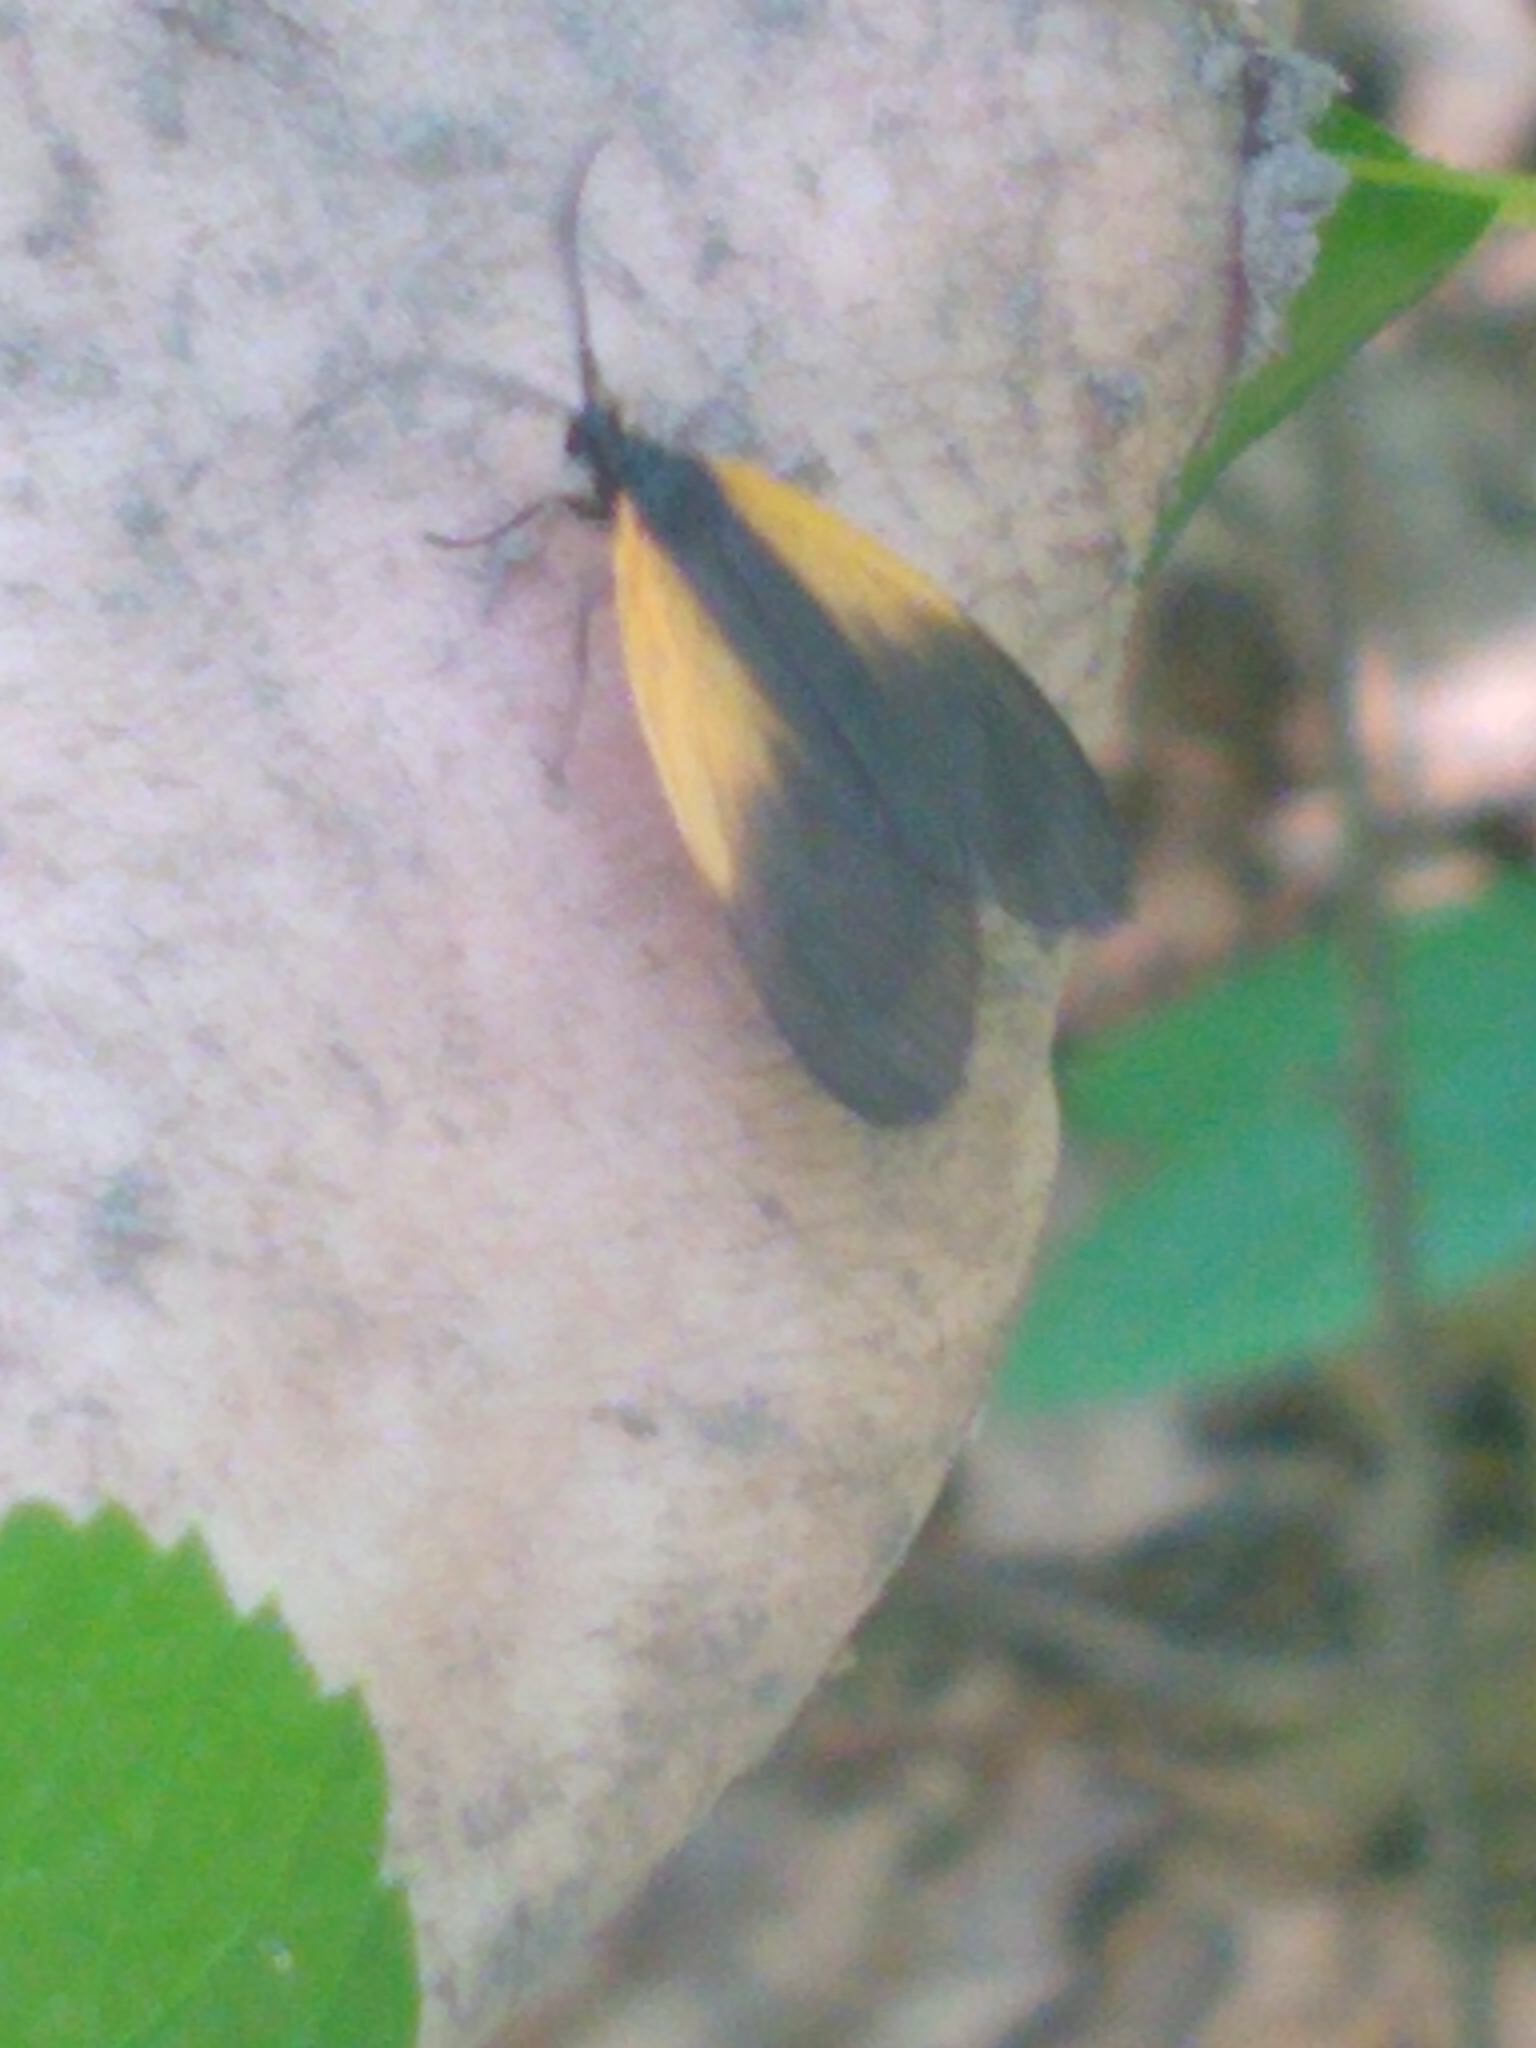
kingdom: Animalia
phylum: Arthropoda
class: Insecta
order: Lepidoptera
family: Zygaenidae
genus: Malthaca
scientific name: Malthaca dimidiata
